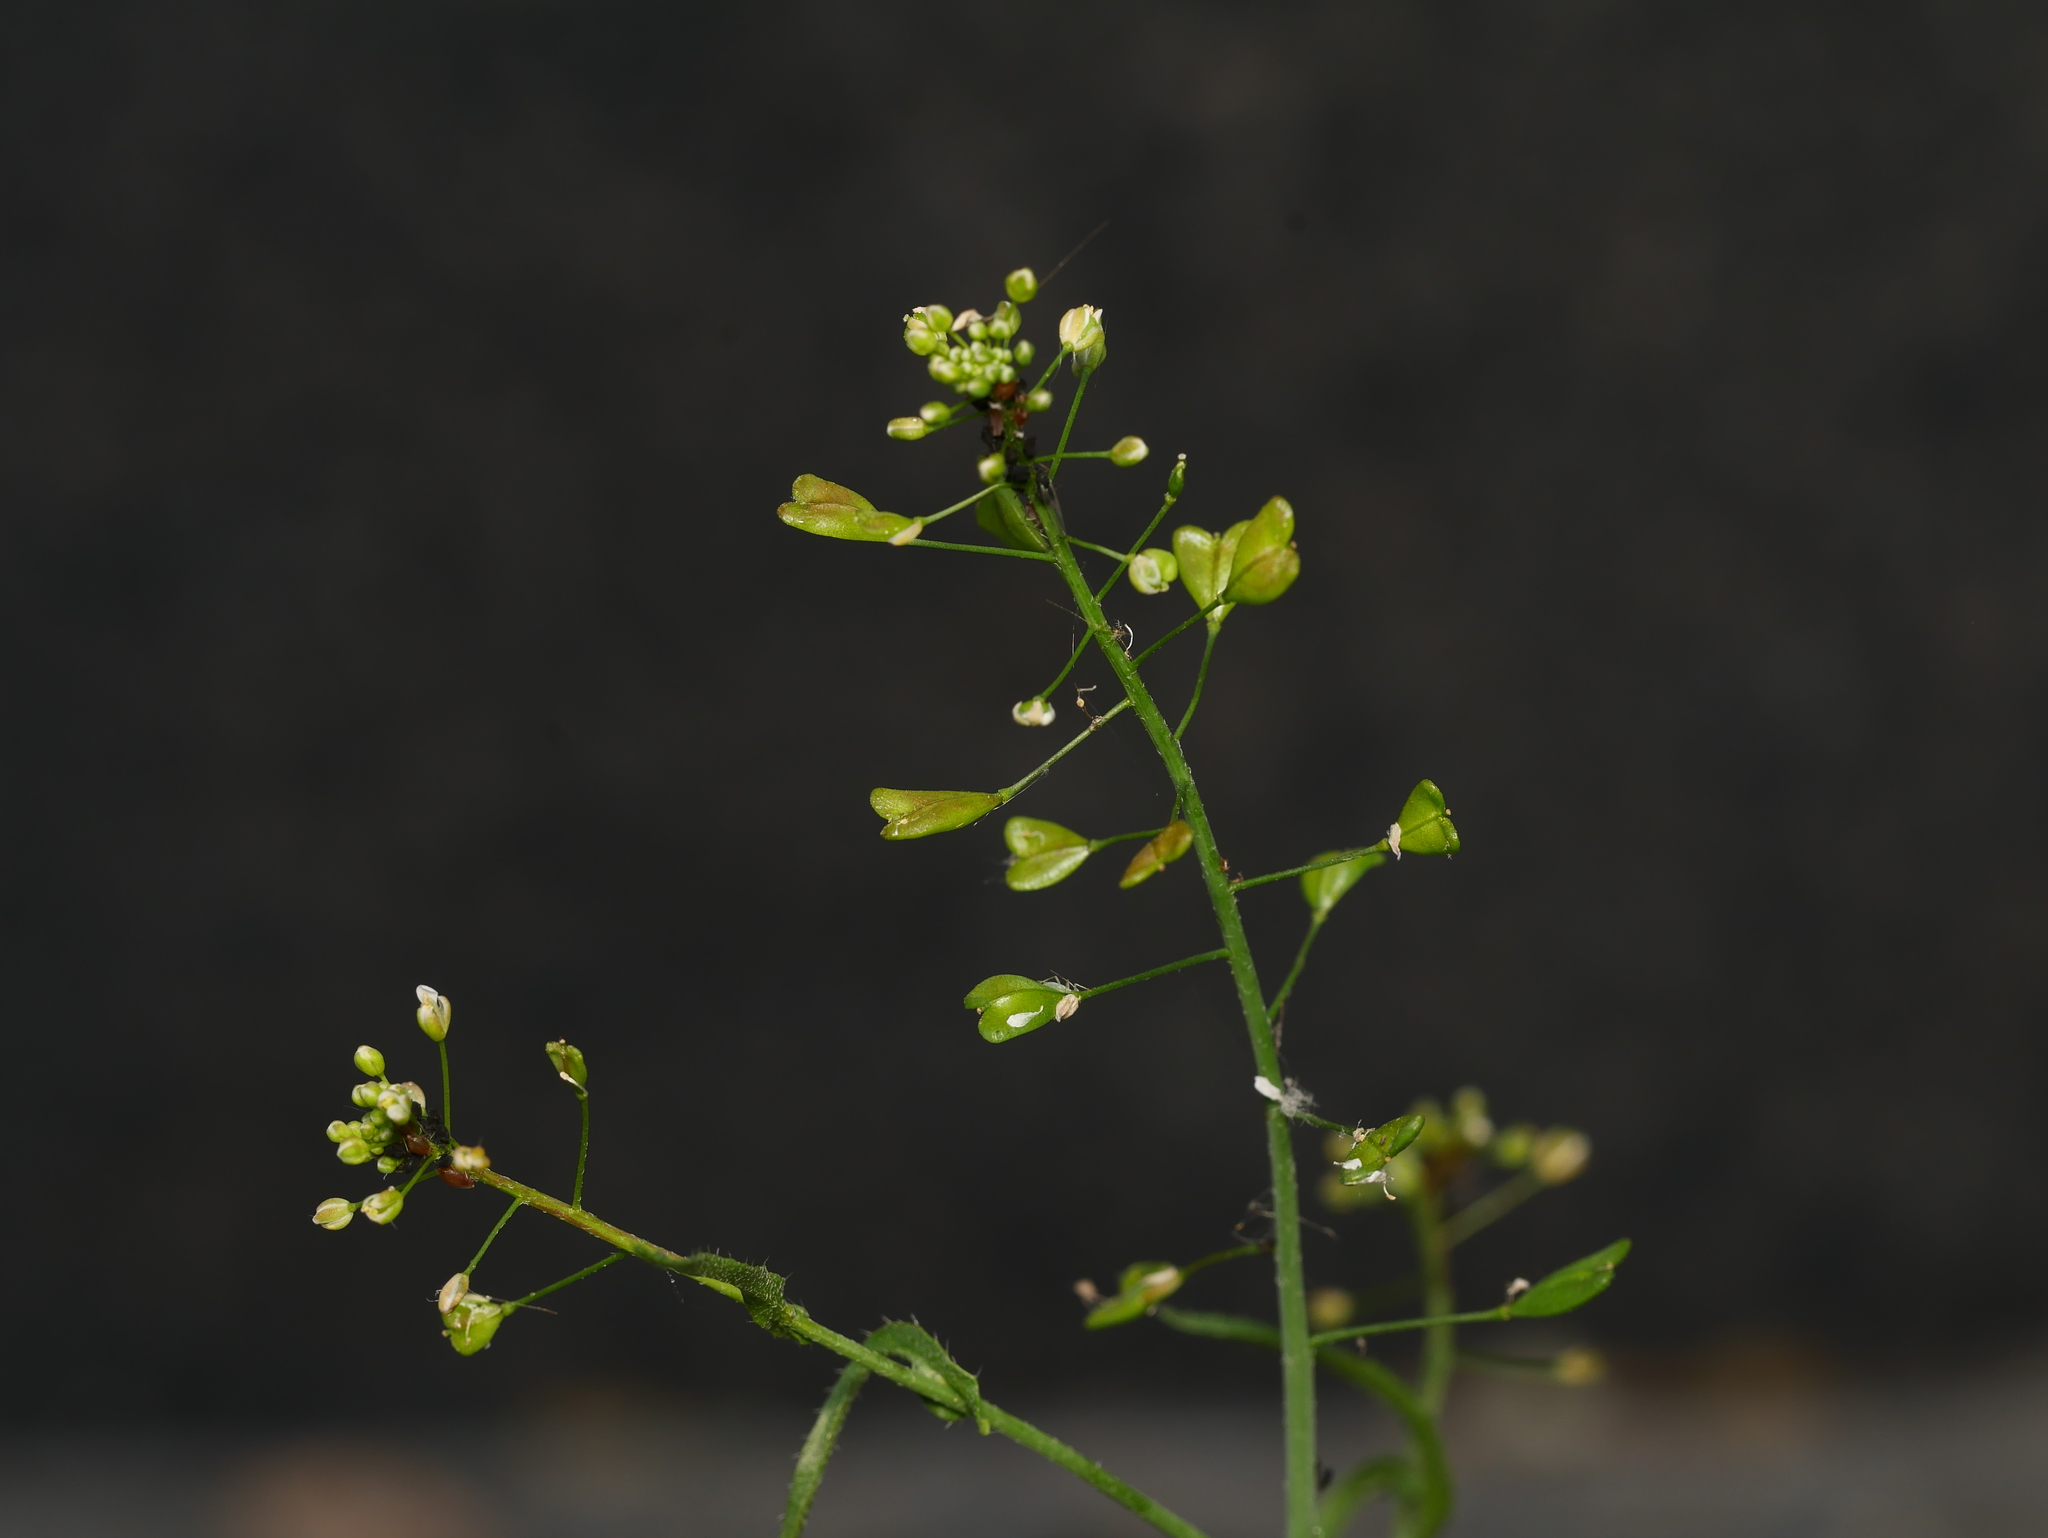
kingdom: Plantae
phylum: Tracheophyta
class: Magnoliopsida
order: Brassicales
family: Brassicaceae
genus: Capsella
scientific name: Capsella bursa-pastoris
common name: Shepherd's purse
